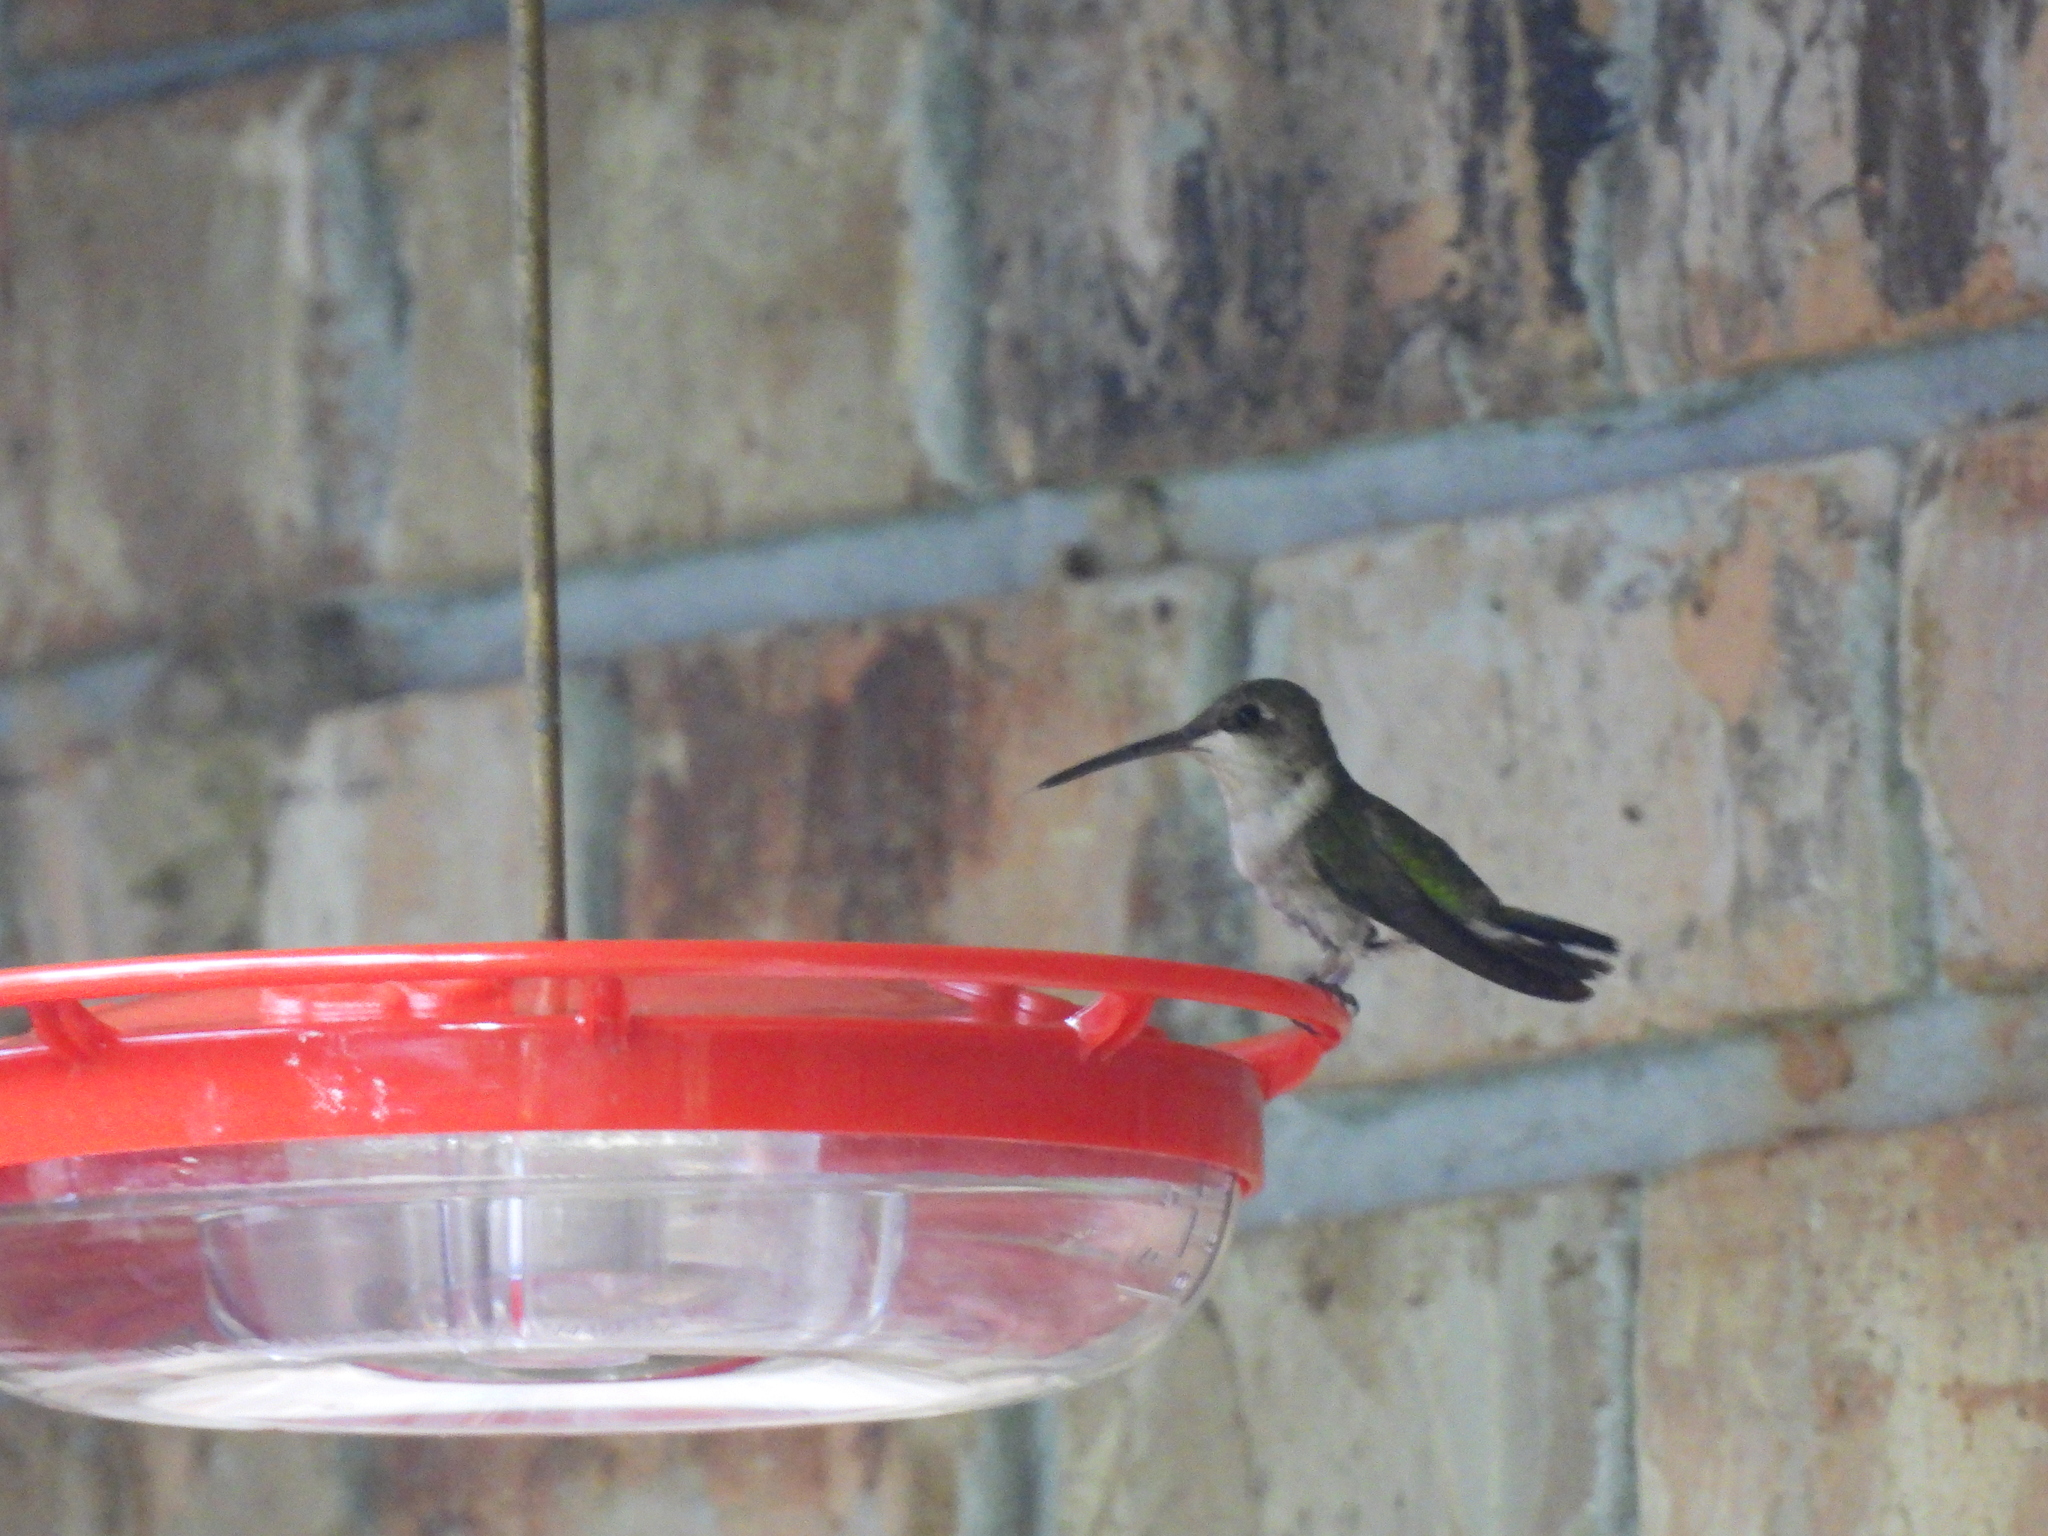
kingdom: Animalia
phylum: Chordata
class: Aves
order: Apodiformes
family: Trochilidae
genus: Archilochus
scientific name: Archilochus colubris
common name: Ruby-throated hummingbird
